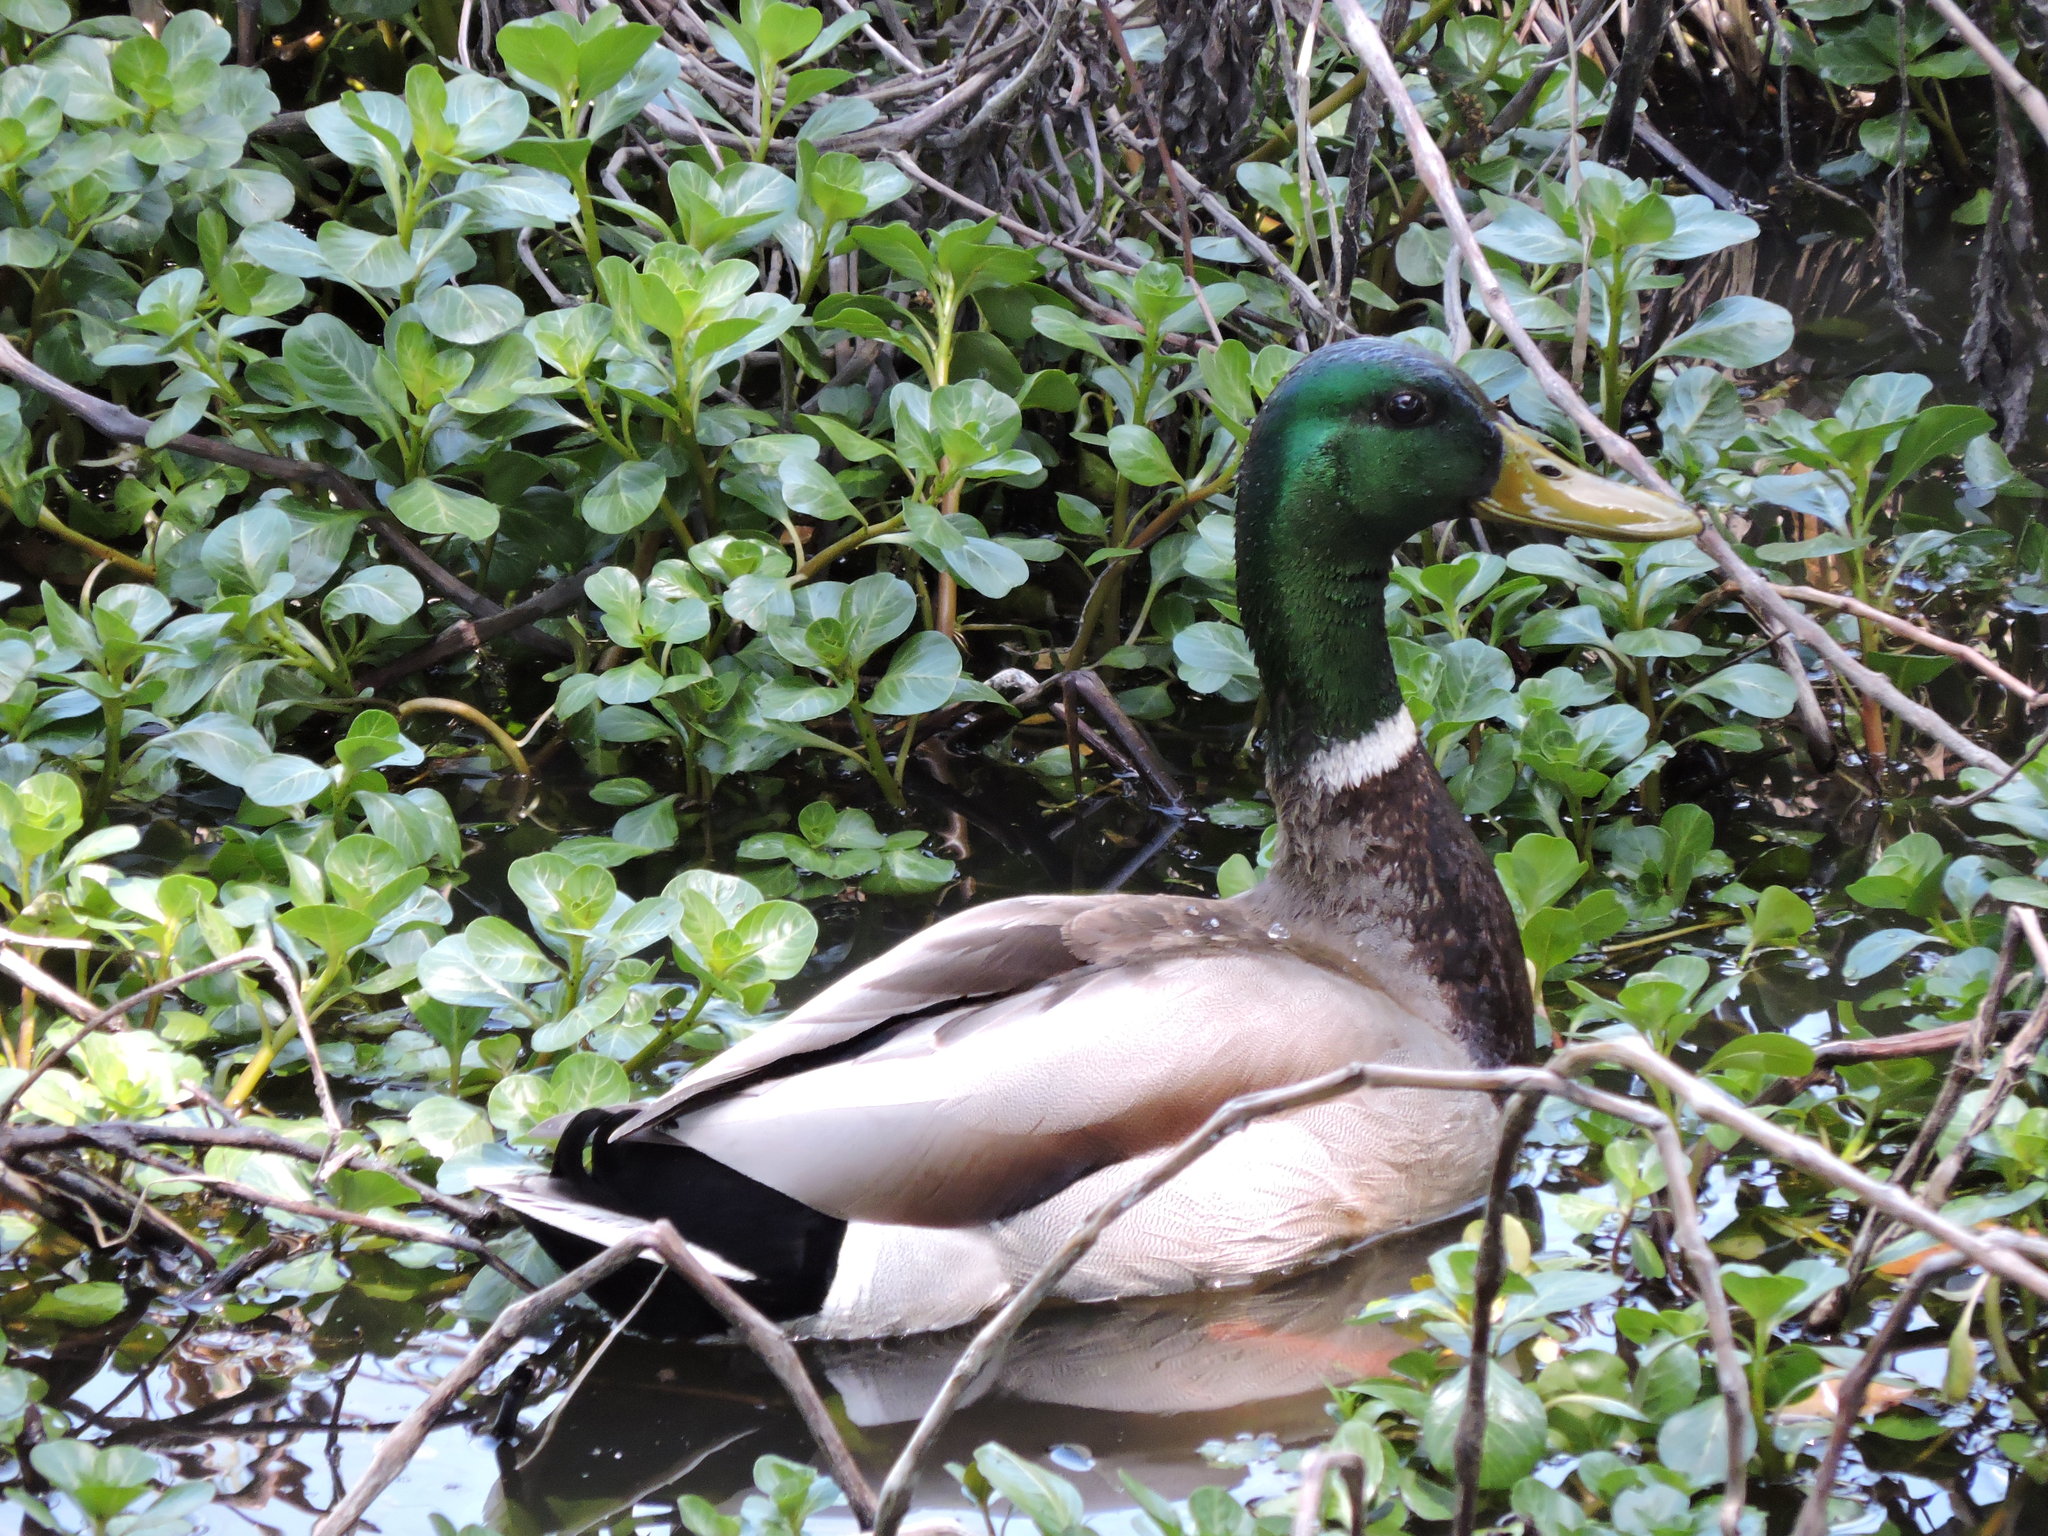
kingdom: Animalia
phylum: Chordata
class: Aves
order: Anseriformes
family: Anatidae
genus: Anas
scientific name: Anas platyrhynchos
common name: Mallard
